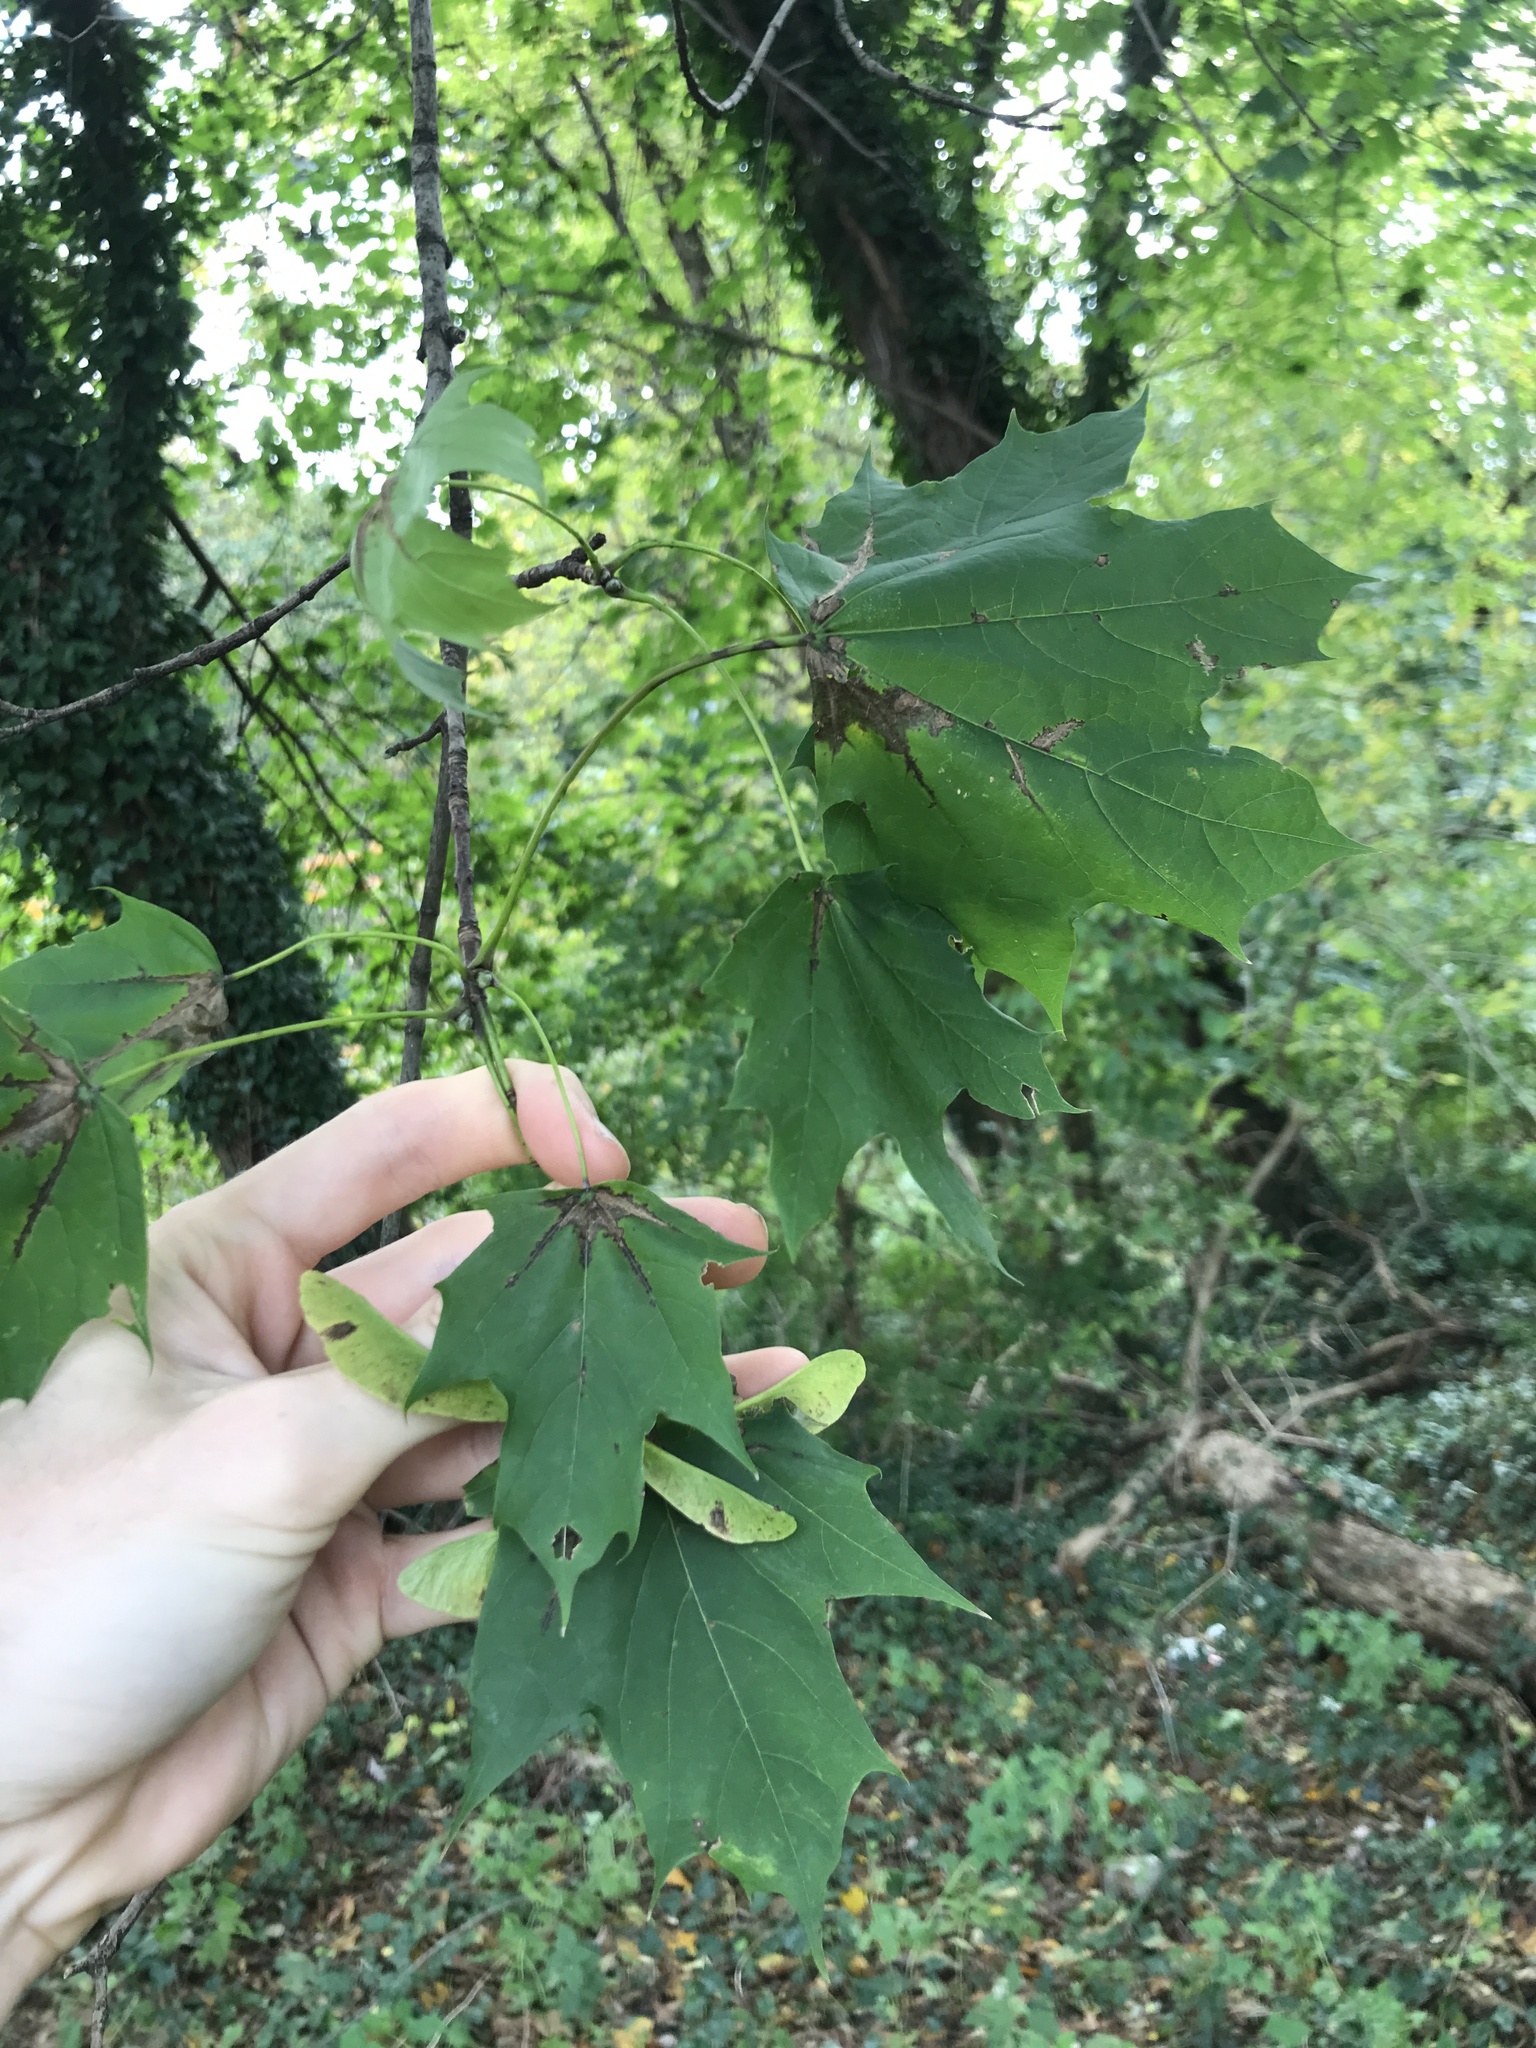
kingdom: Plantae
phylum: Tracheophyta
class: Magnoliopsida
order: Sapindales
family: Sapindaceae
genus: Acer
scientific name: Acer platanoides
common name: Norway maple
